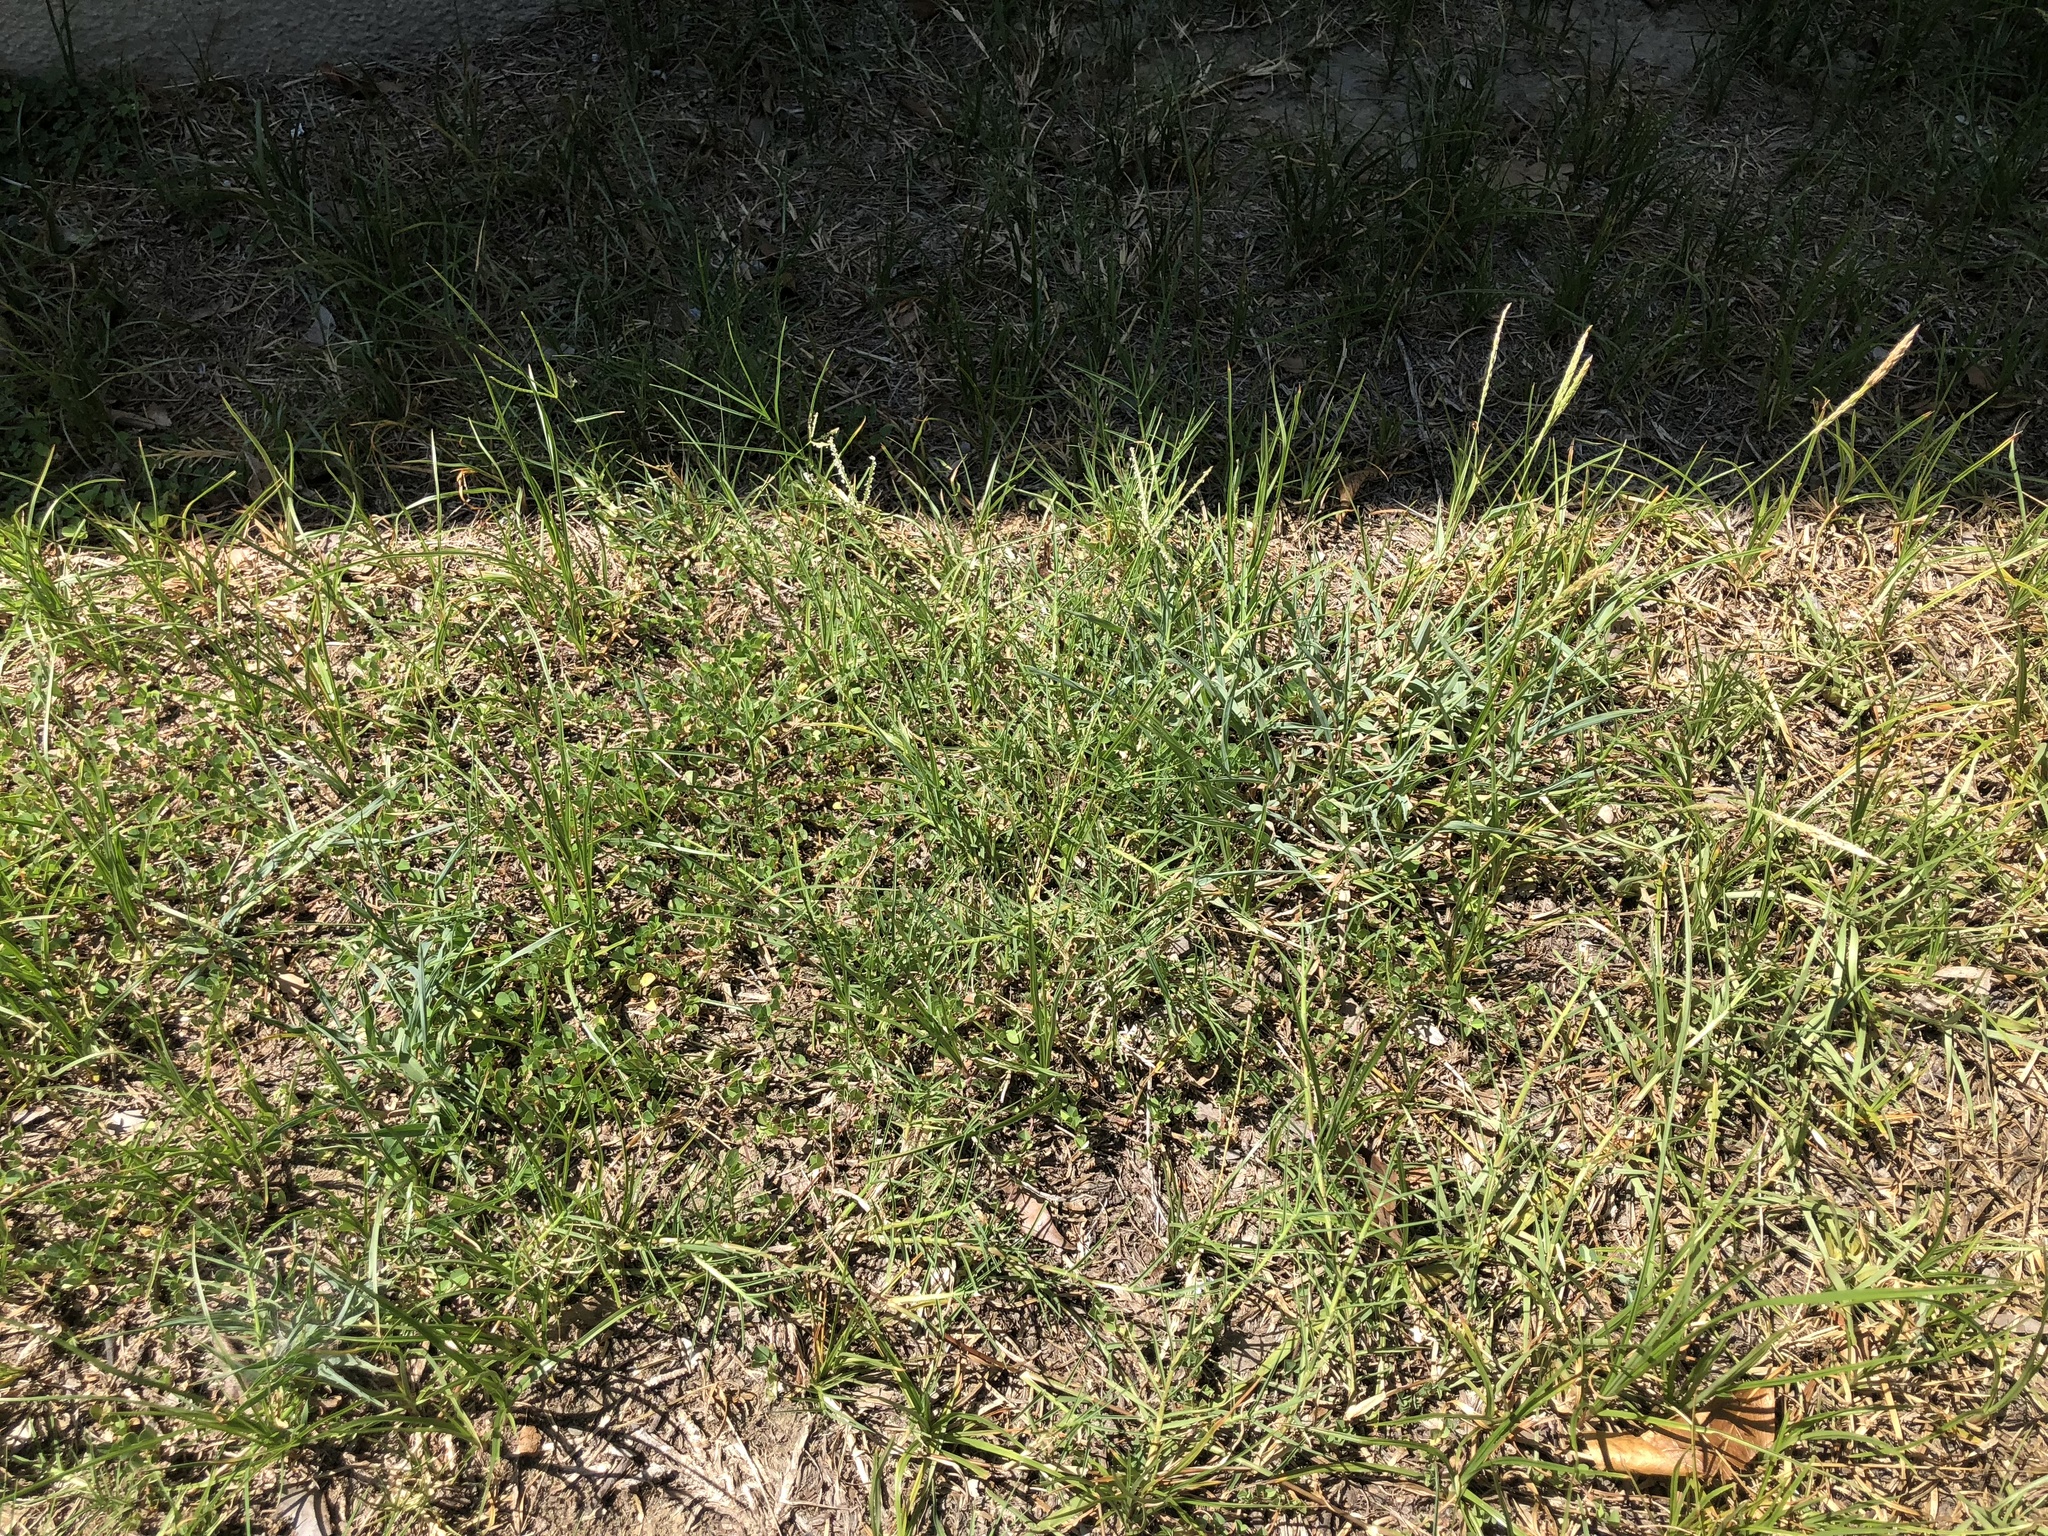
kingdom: Plantae
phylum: Tracheophyta
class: Liliopsida
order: Poales
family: Poaceae
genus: Cynodon
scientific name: Cynodon dactylon
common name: Bermuda grass
